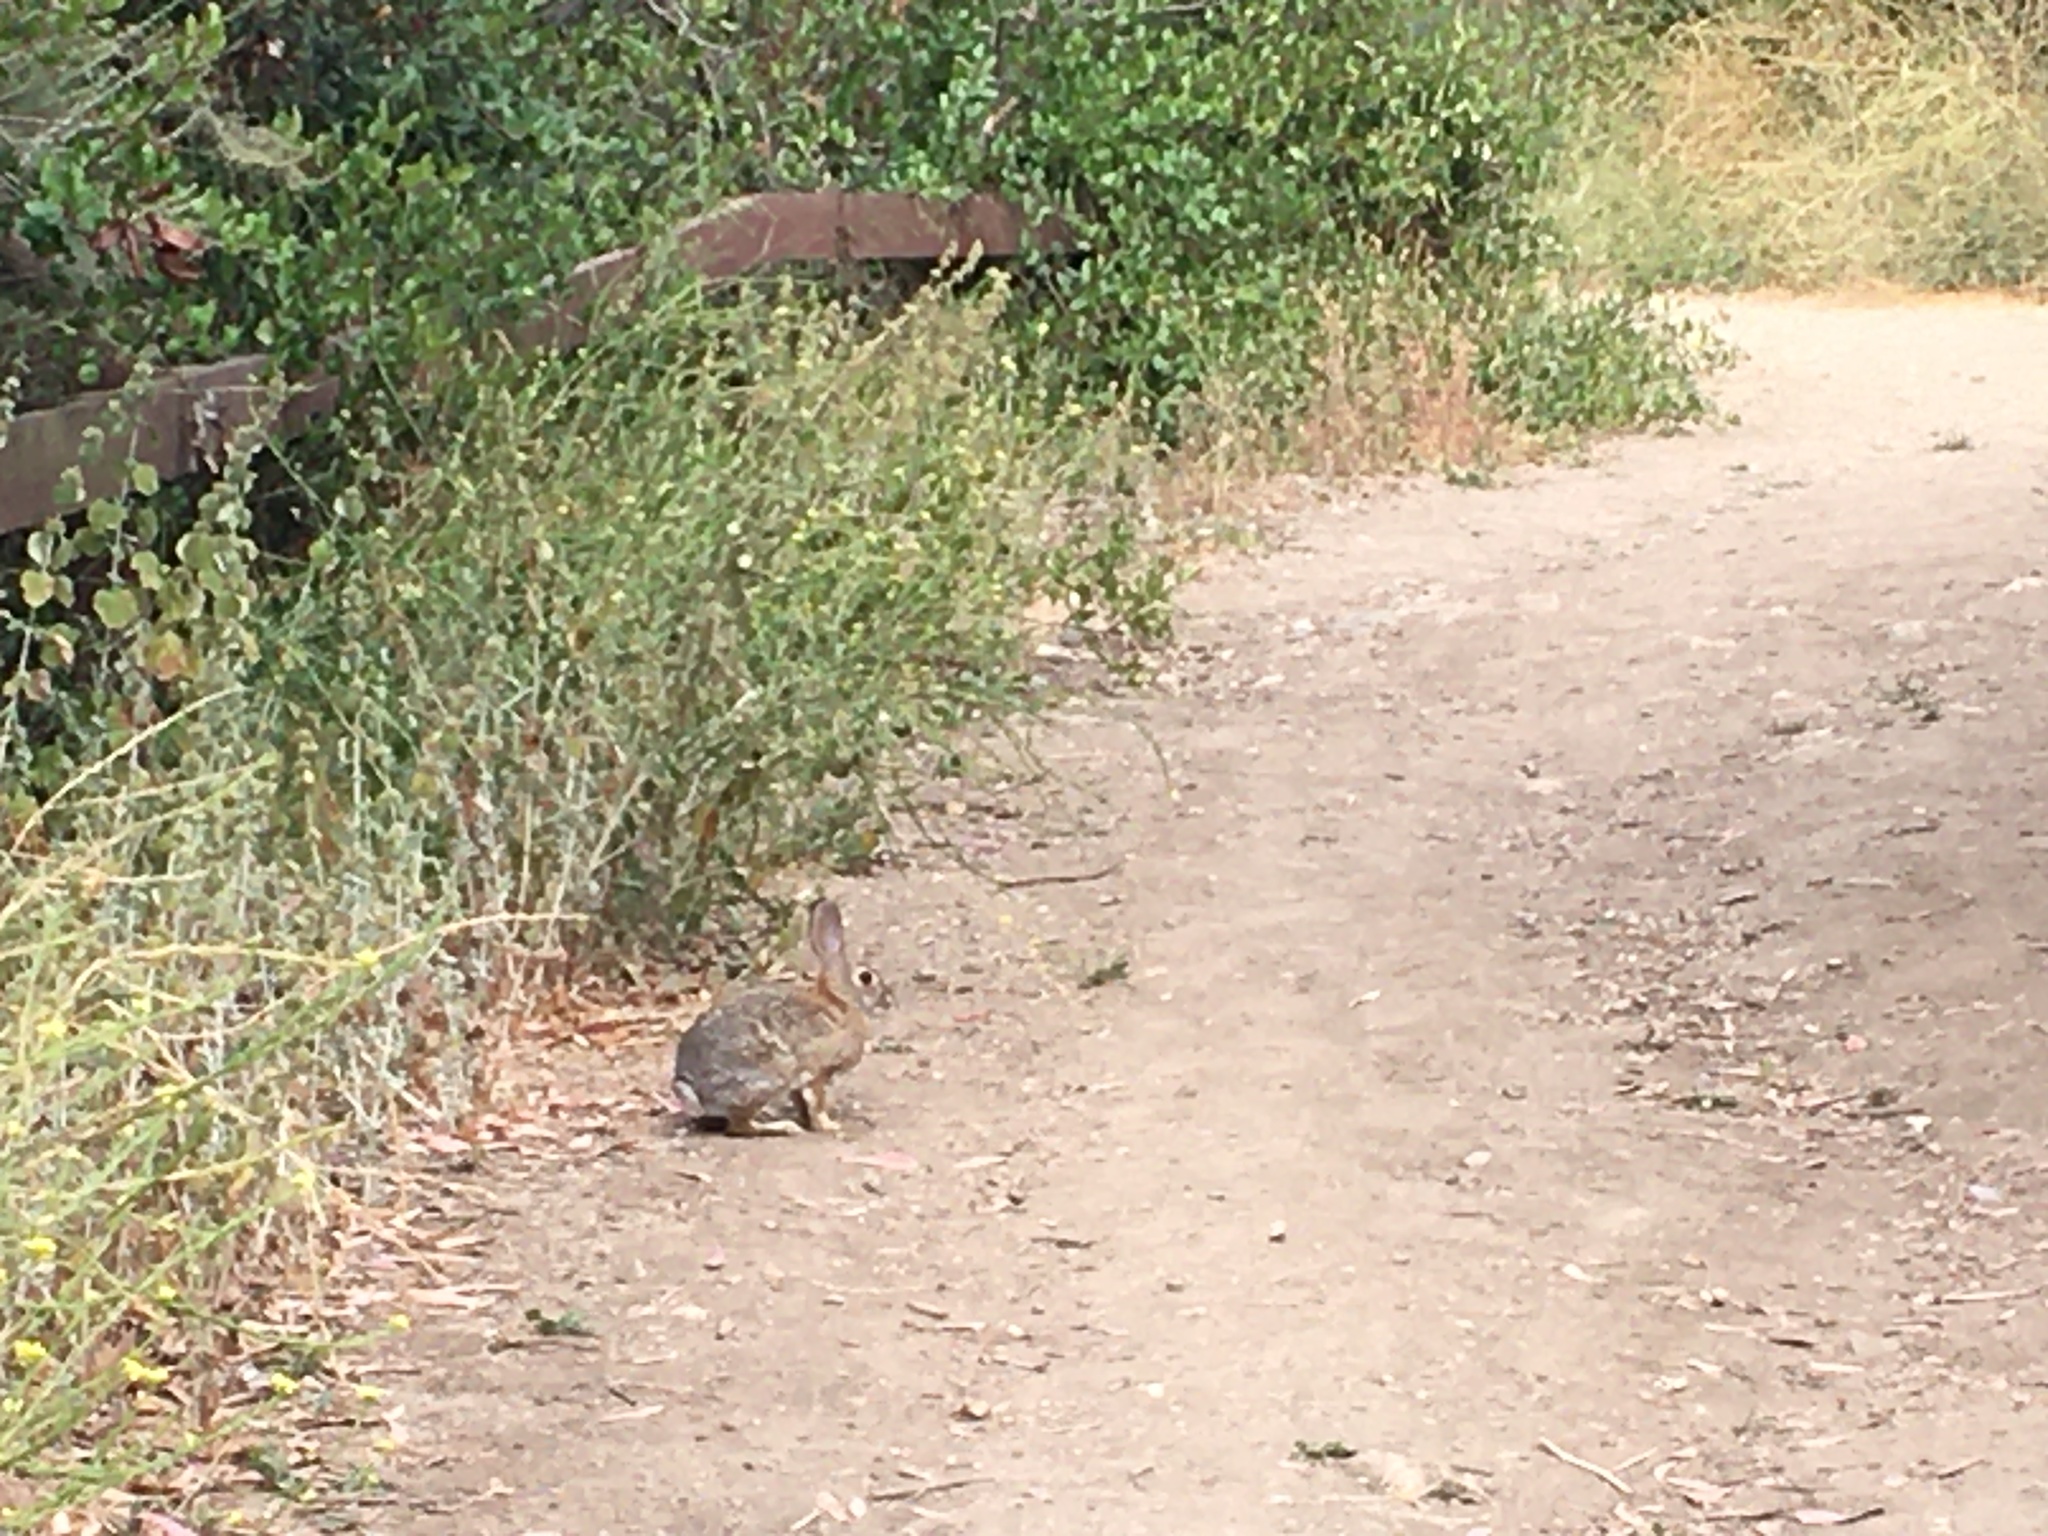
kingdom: Animalia
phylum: Chordata
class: Mammalia
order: Lagomorpha
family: Leporidae
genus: Sylvilagus
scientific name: Sylvilagus audubonii
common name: Desert cottontail
